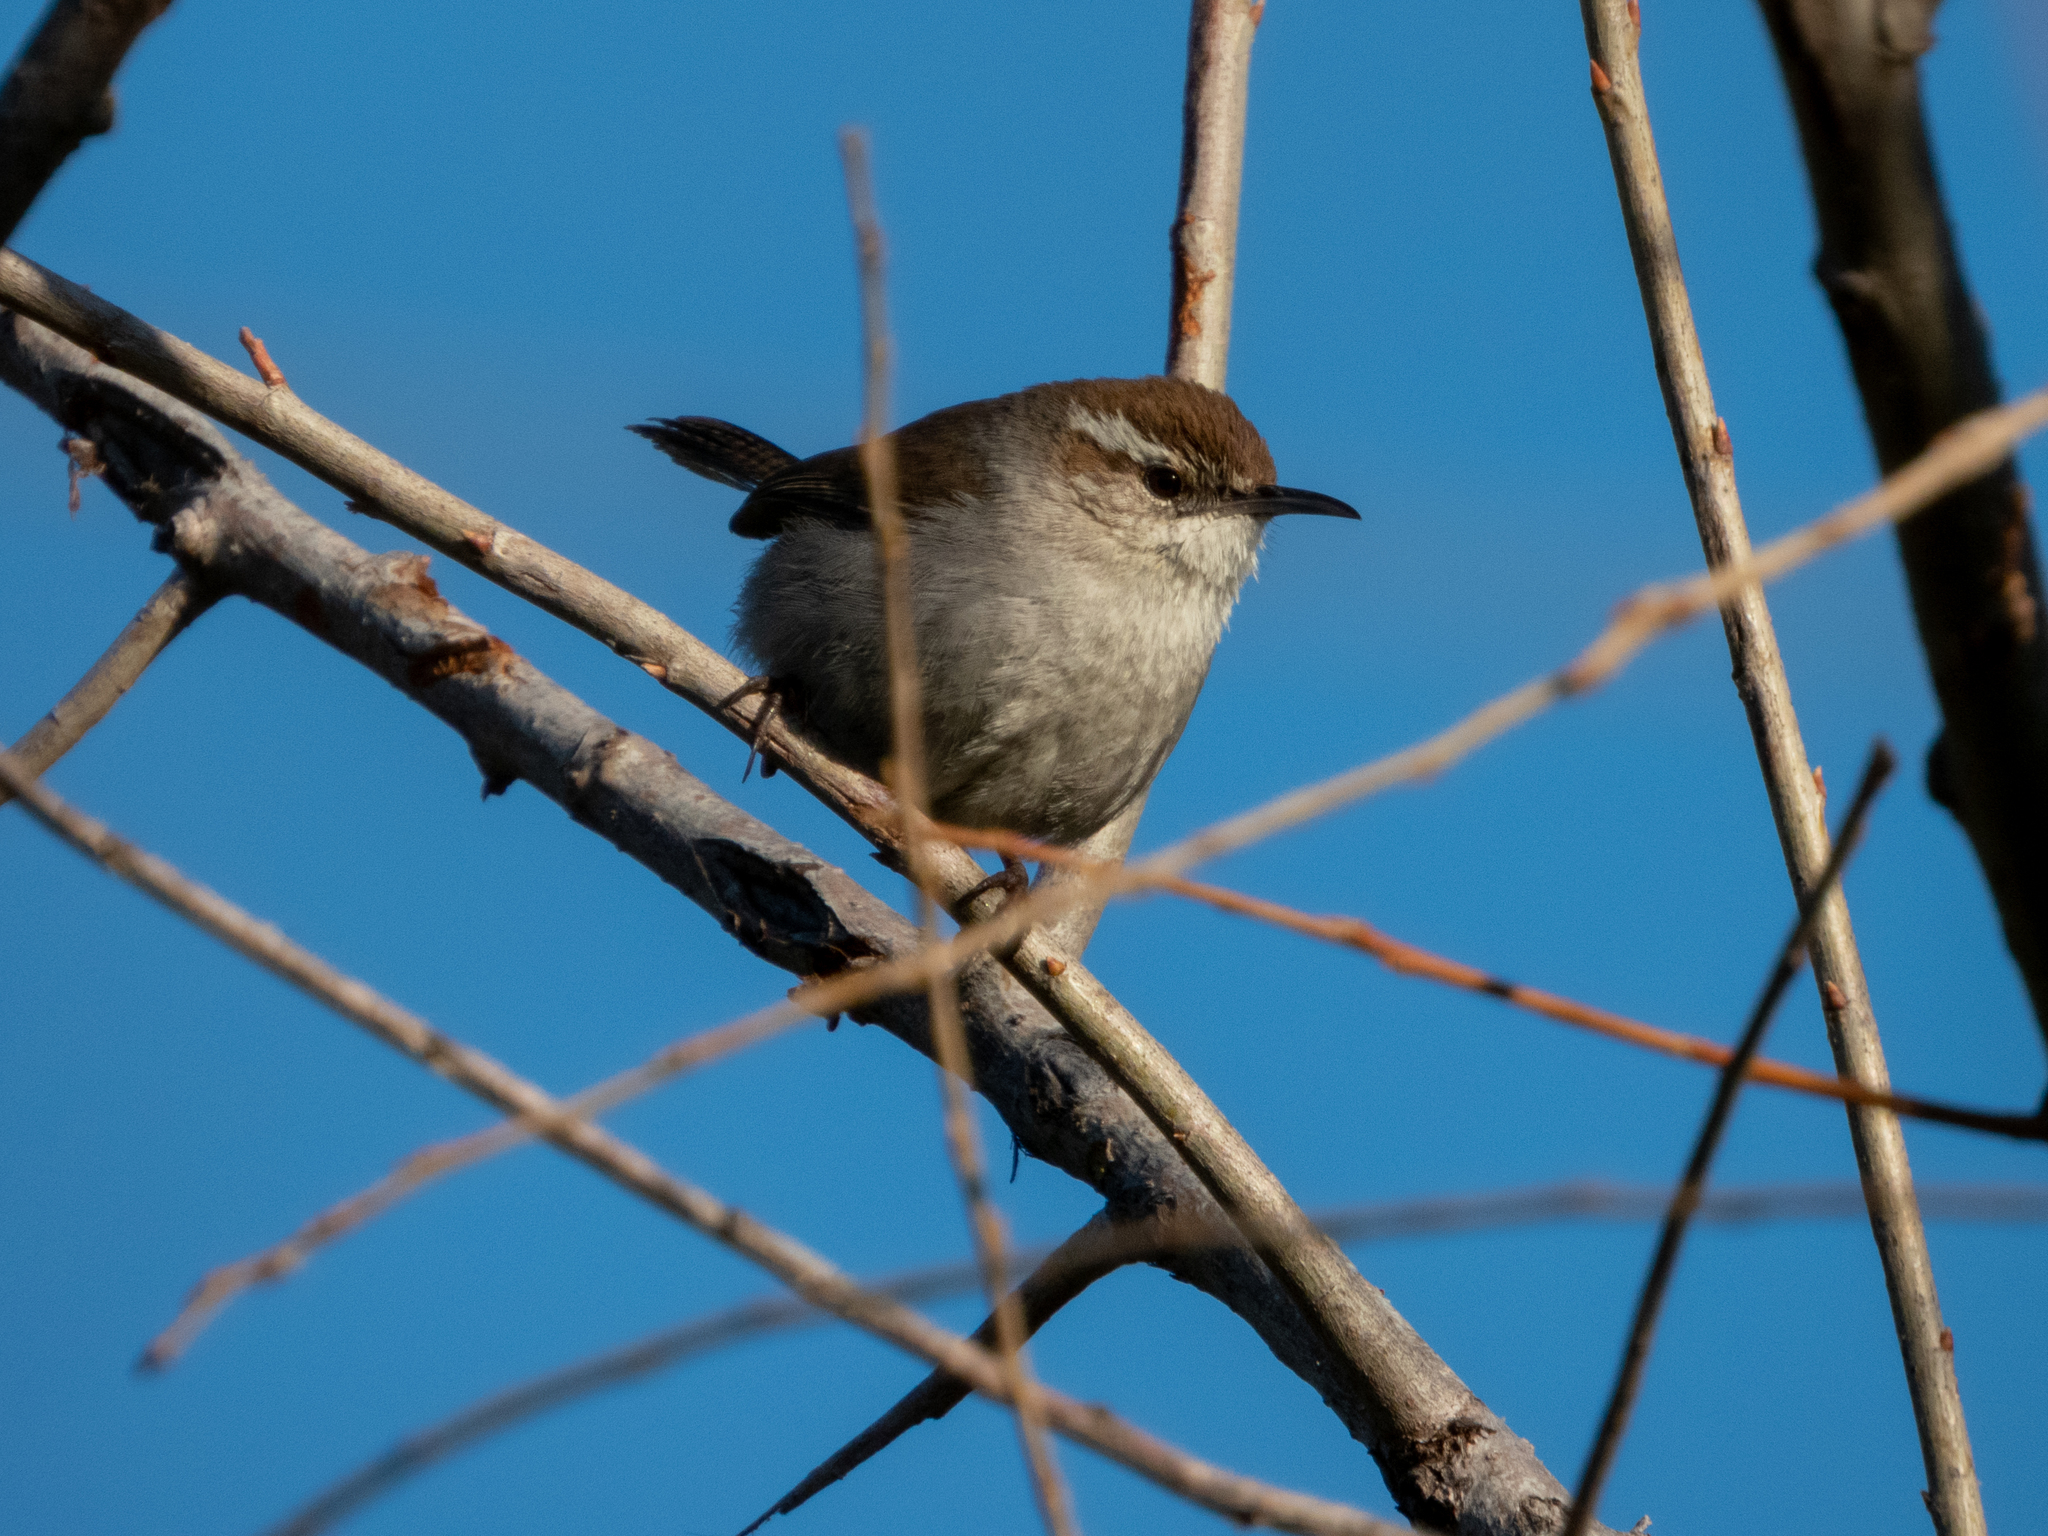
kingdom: Animalia
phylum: Chordata
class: Aves
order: Passeriformes
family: Troglodytidae
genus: Thryomanes
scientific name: Thryomanes bewickii
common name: Bewick's wren
